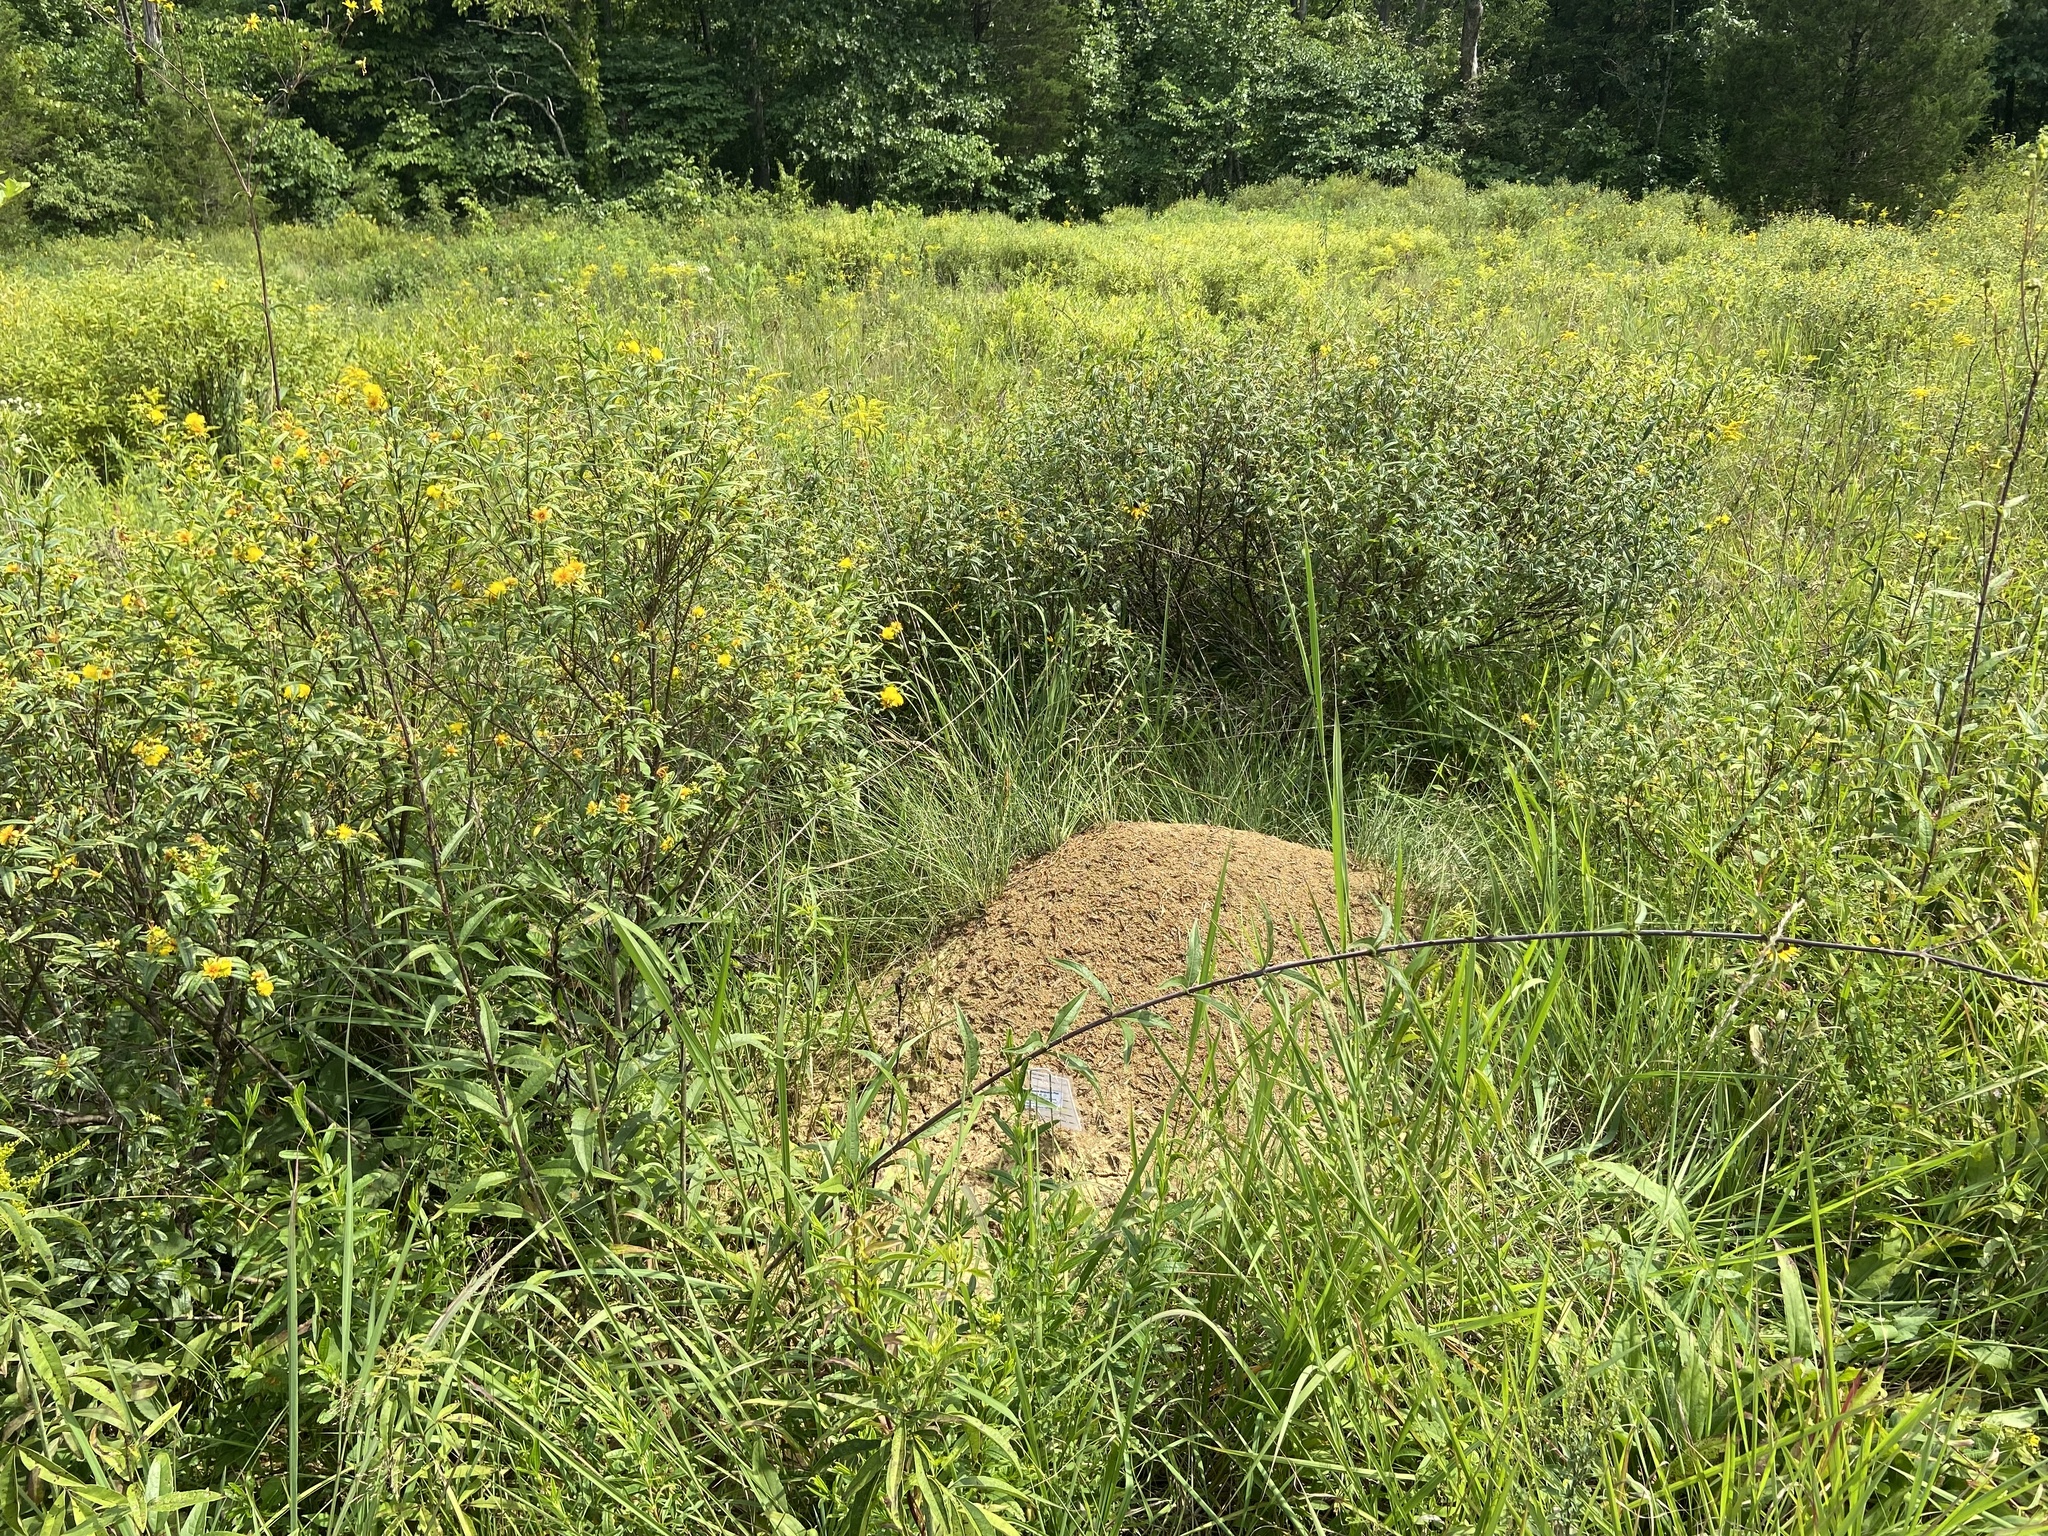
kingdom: Animalia
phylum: Arthropoda
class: Insecta
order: Hymenoptera
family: Formicidae
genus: Formica
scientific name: Formica exsectoides
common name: Allegheny mound ant
